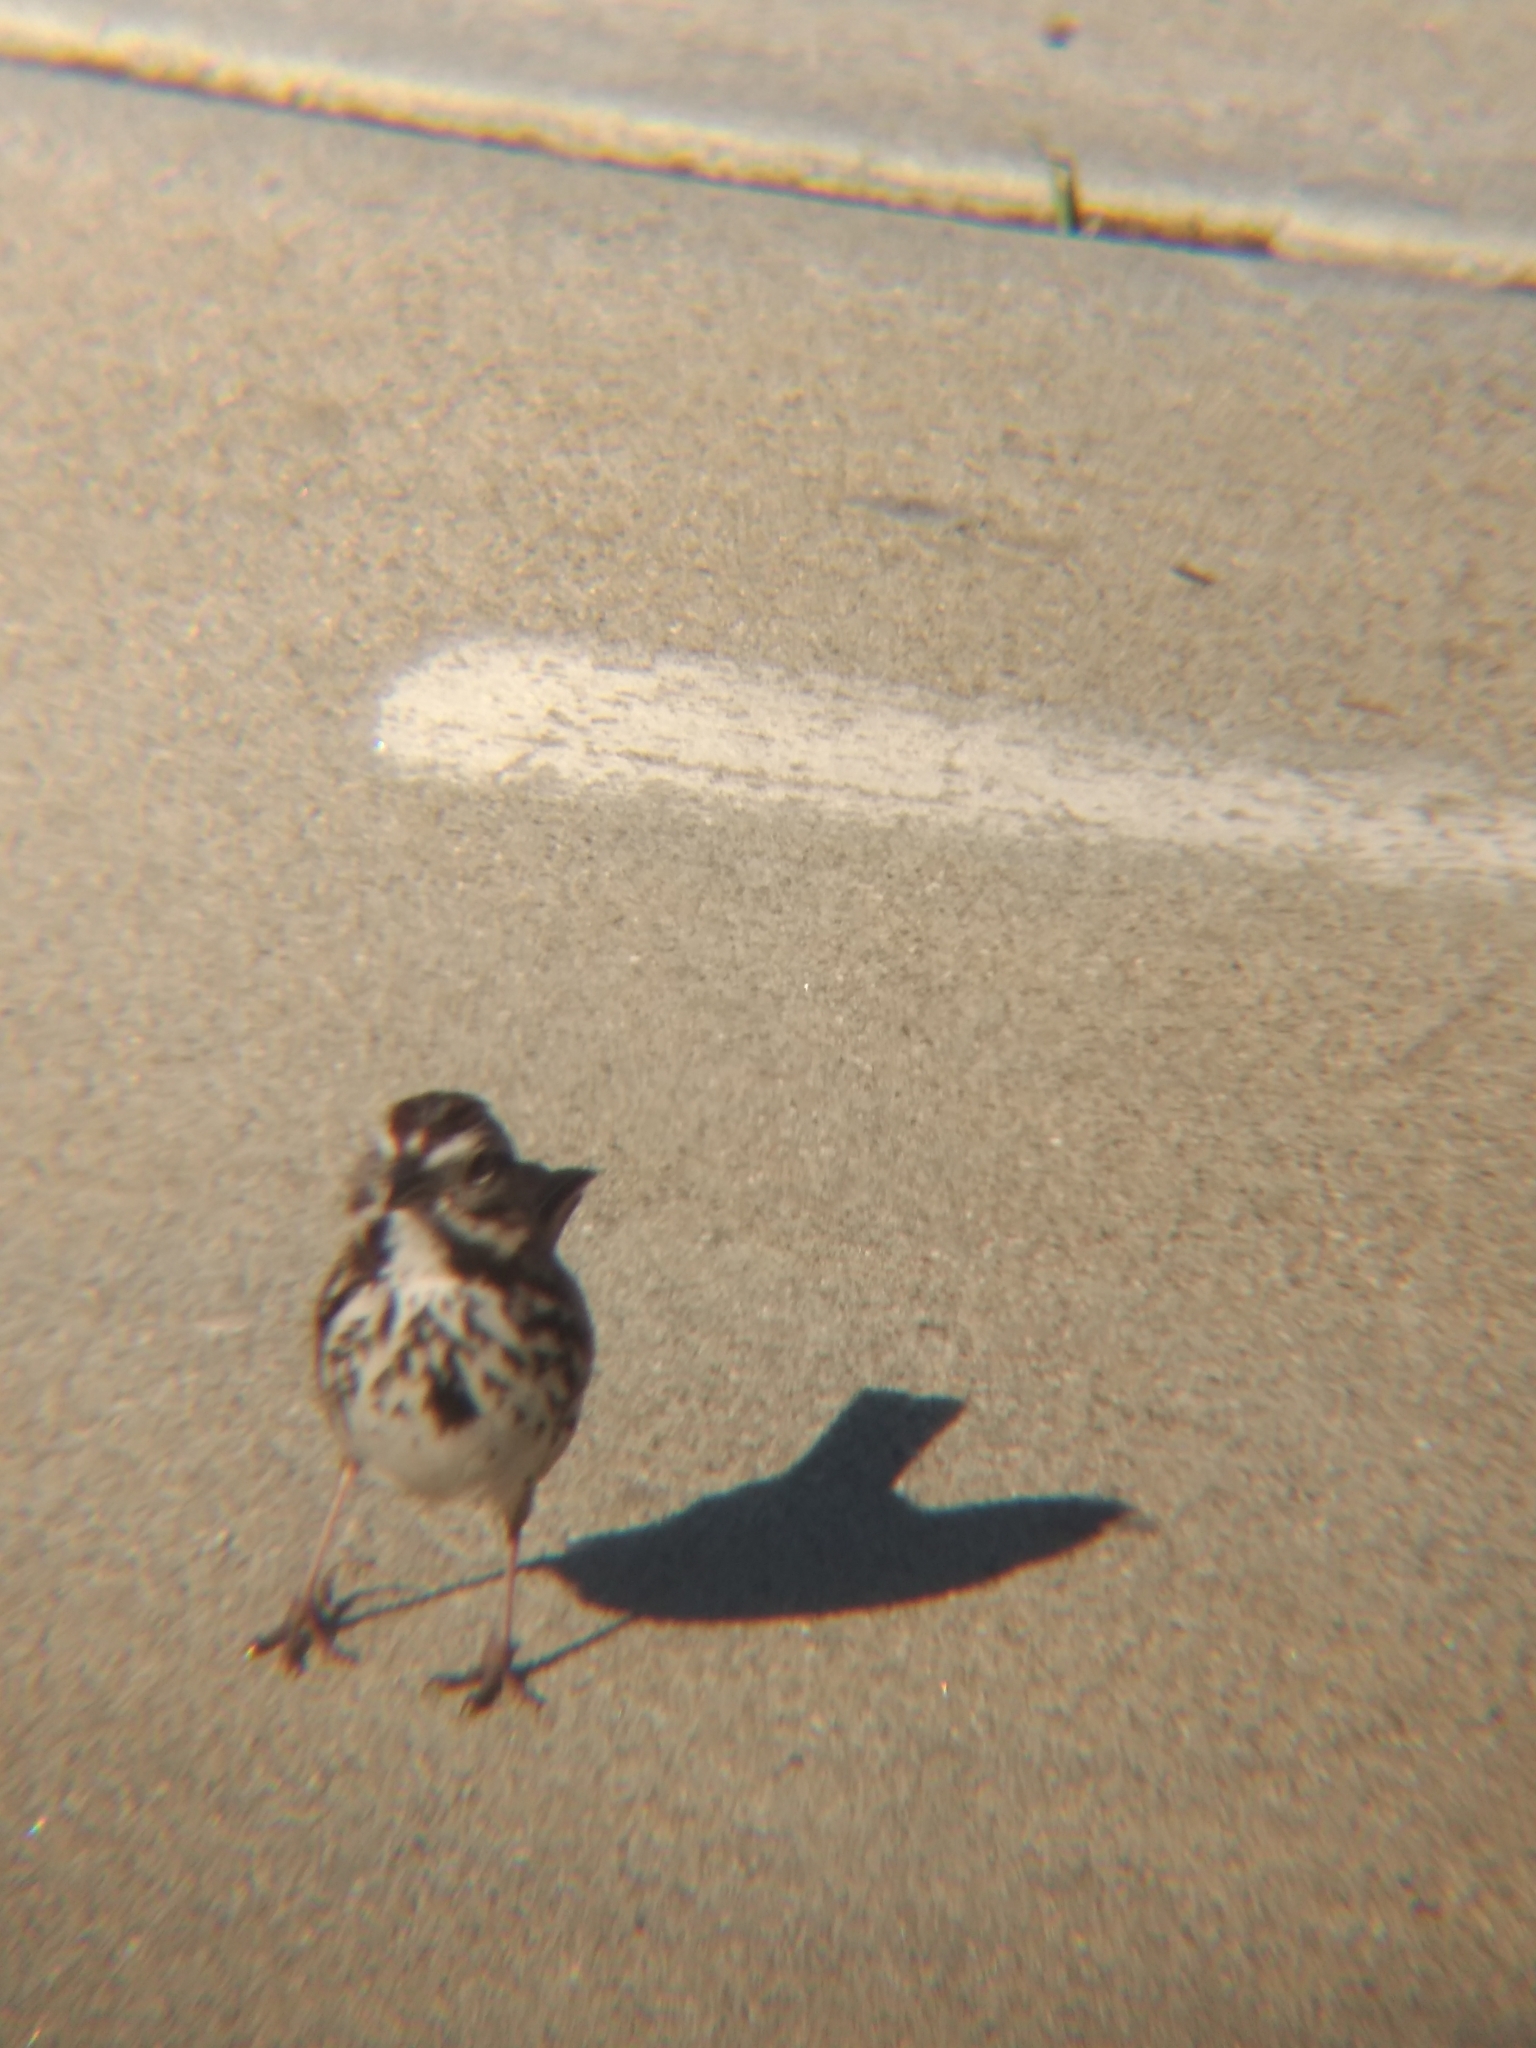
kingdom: Animalia
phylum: Chordata
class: Aves
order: Passeriformes
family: Passerellidae
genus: Melospiza
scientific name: Melospiza melodia
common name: Song sparrow
